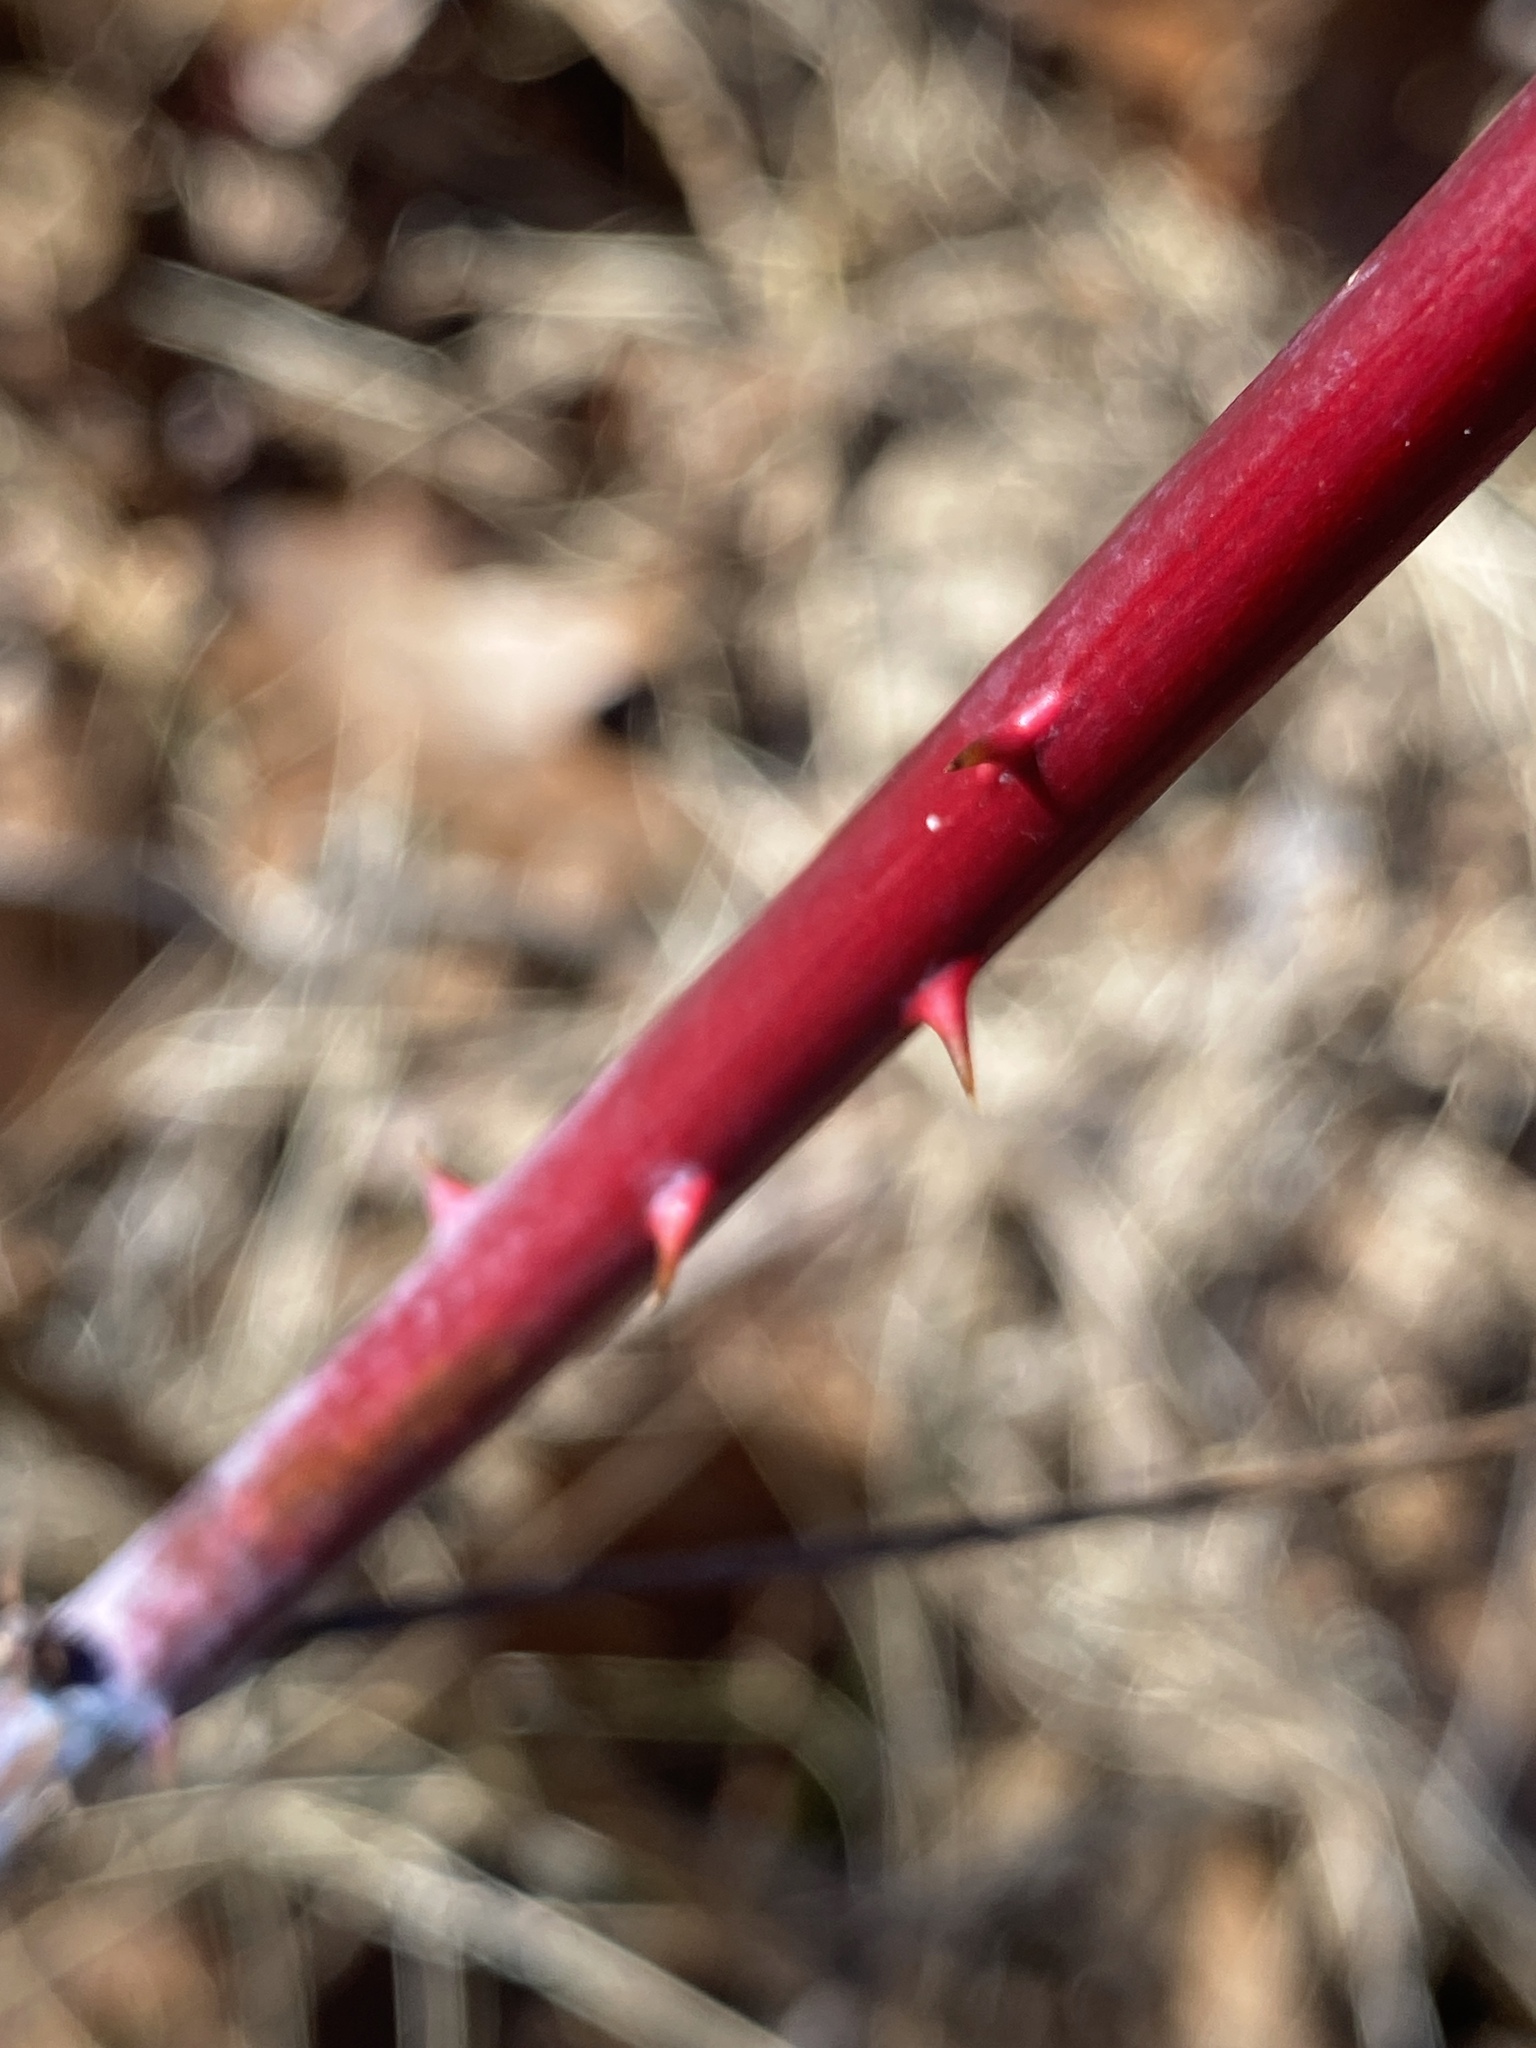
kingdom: Plantae
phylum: Tracheophyta
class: Magnoliopsida
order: Rosales
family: Rosaceae
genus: Rubus
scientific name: Rubus occidentalis
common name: Black raspberry
